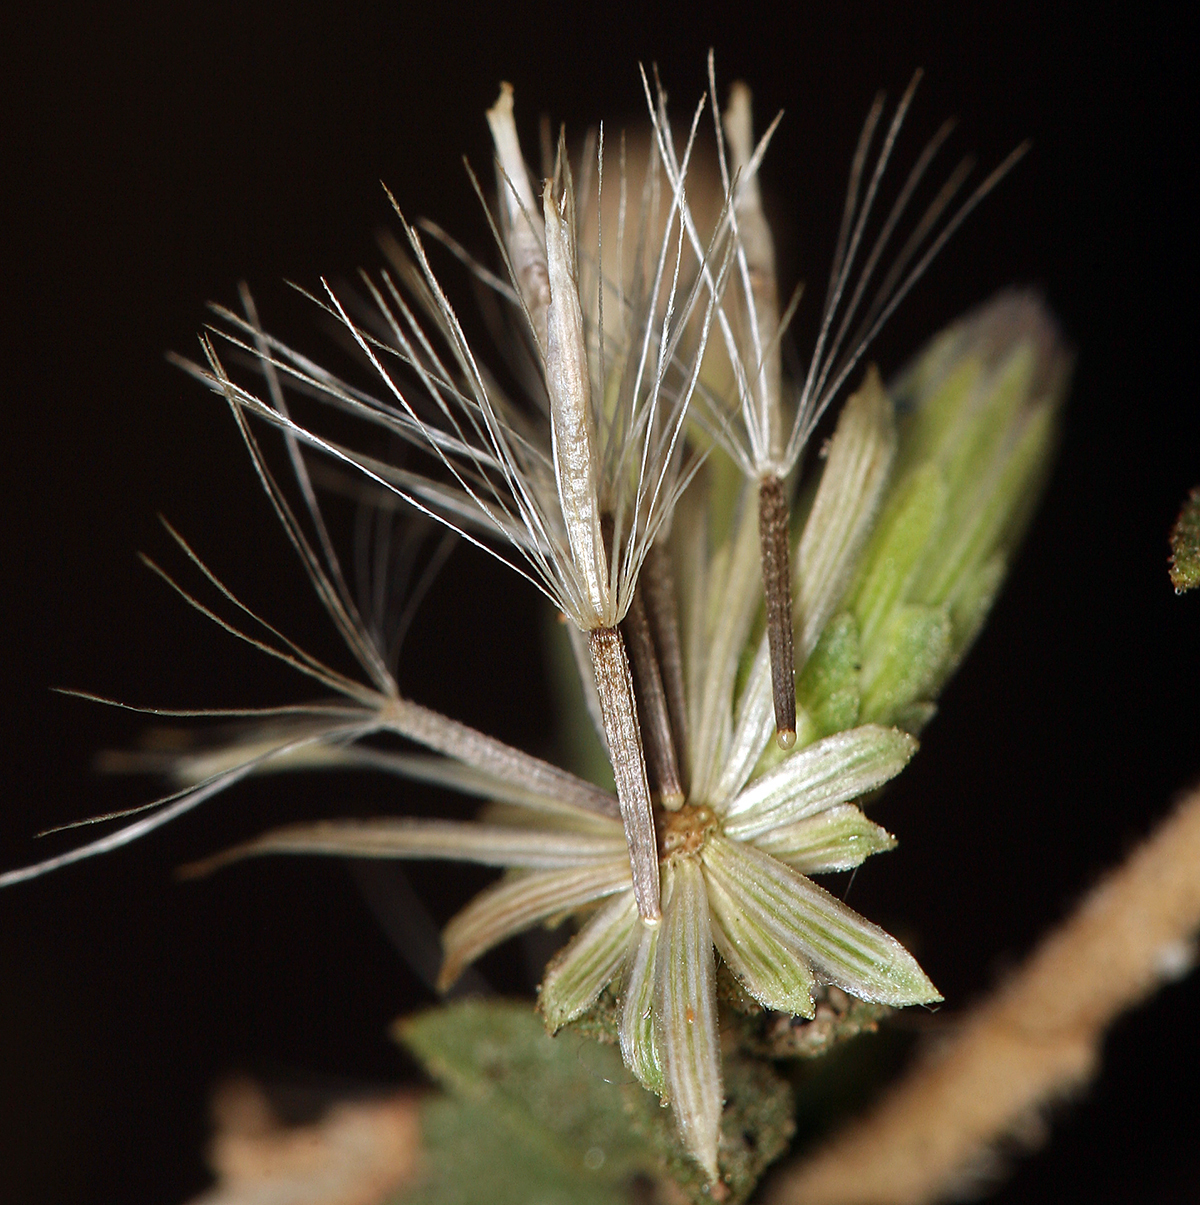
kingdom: Plantae
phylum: Tracheophyta
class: Magnoliopsida
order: Asterales
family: Asteraceae
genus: Brickellia
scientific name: Brickellia microphylla
